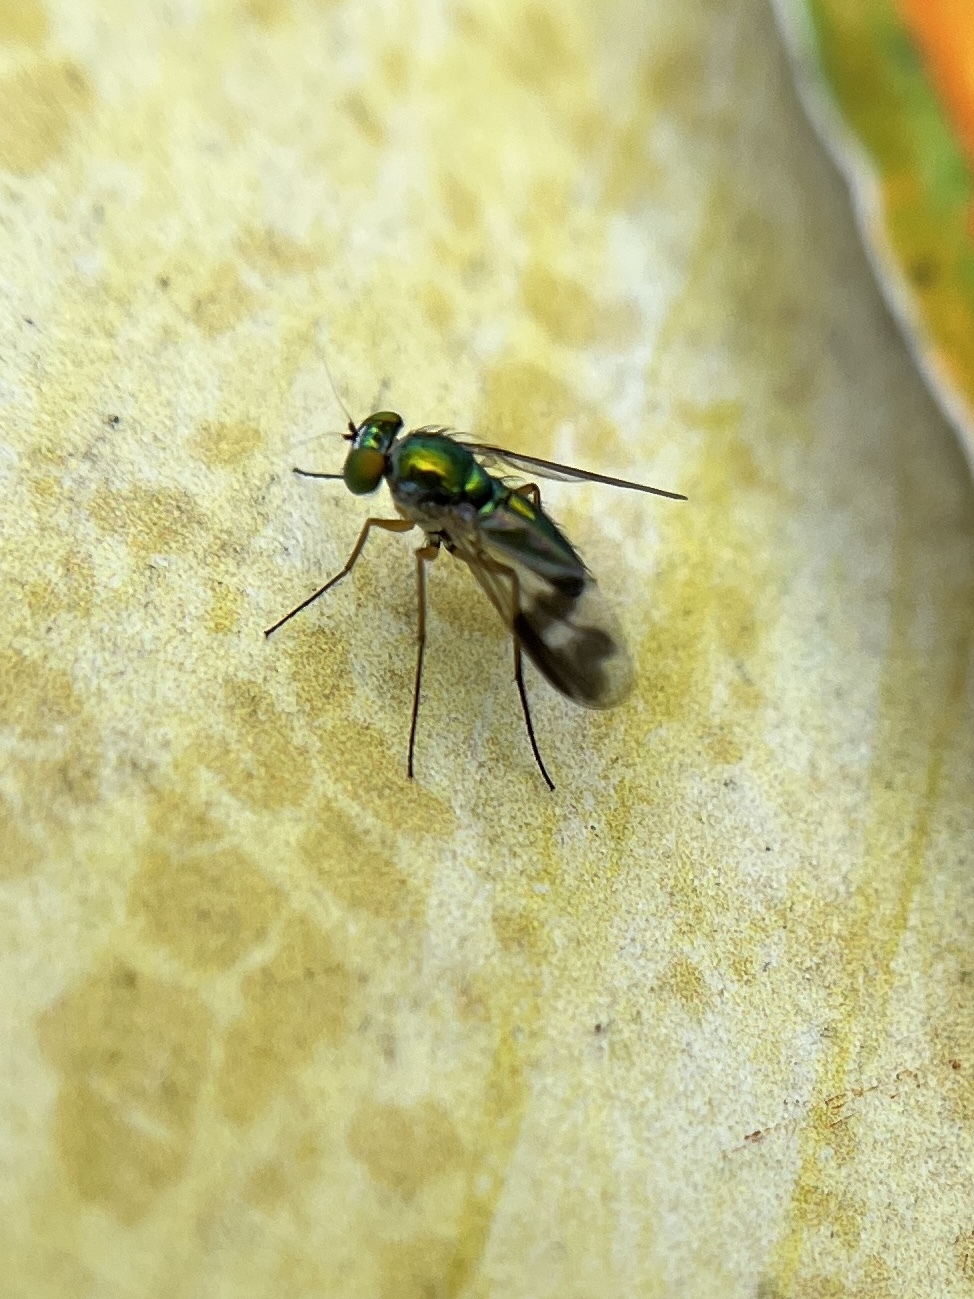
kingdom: Animalia
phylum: Arthropoda
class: Insecta
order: Diptera
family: Dolichopodidae
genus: Condylostylus
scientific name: Condylostylus
